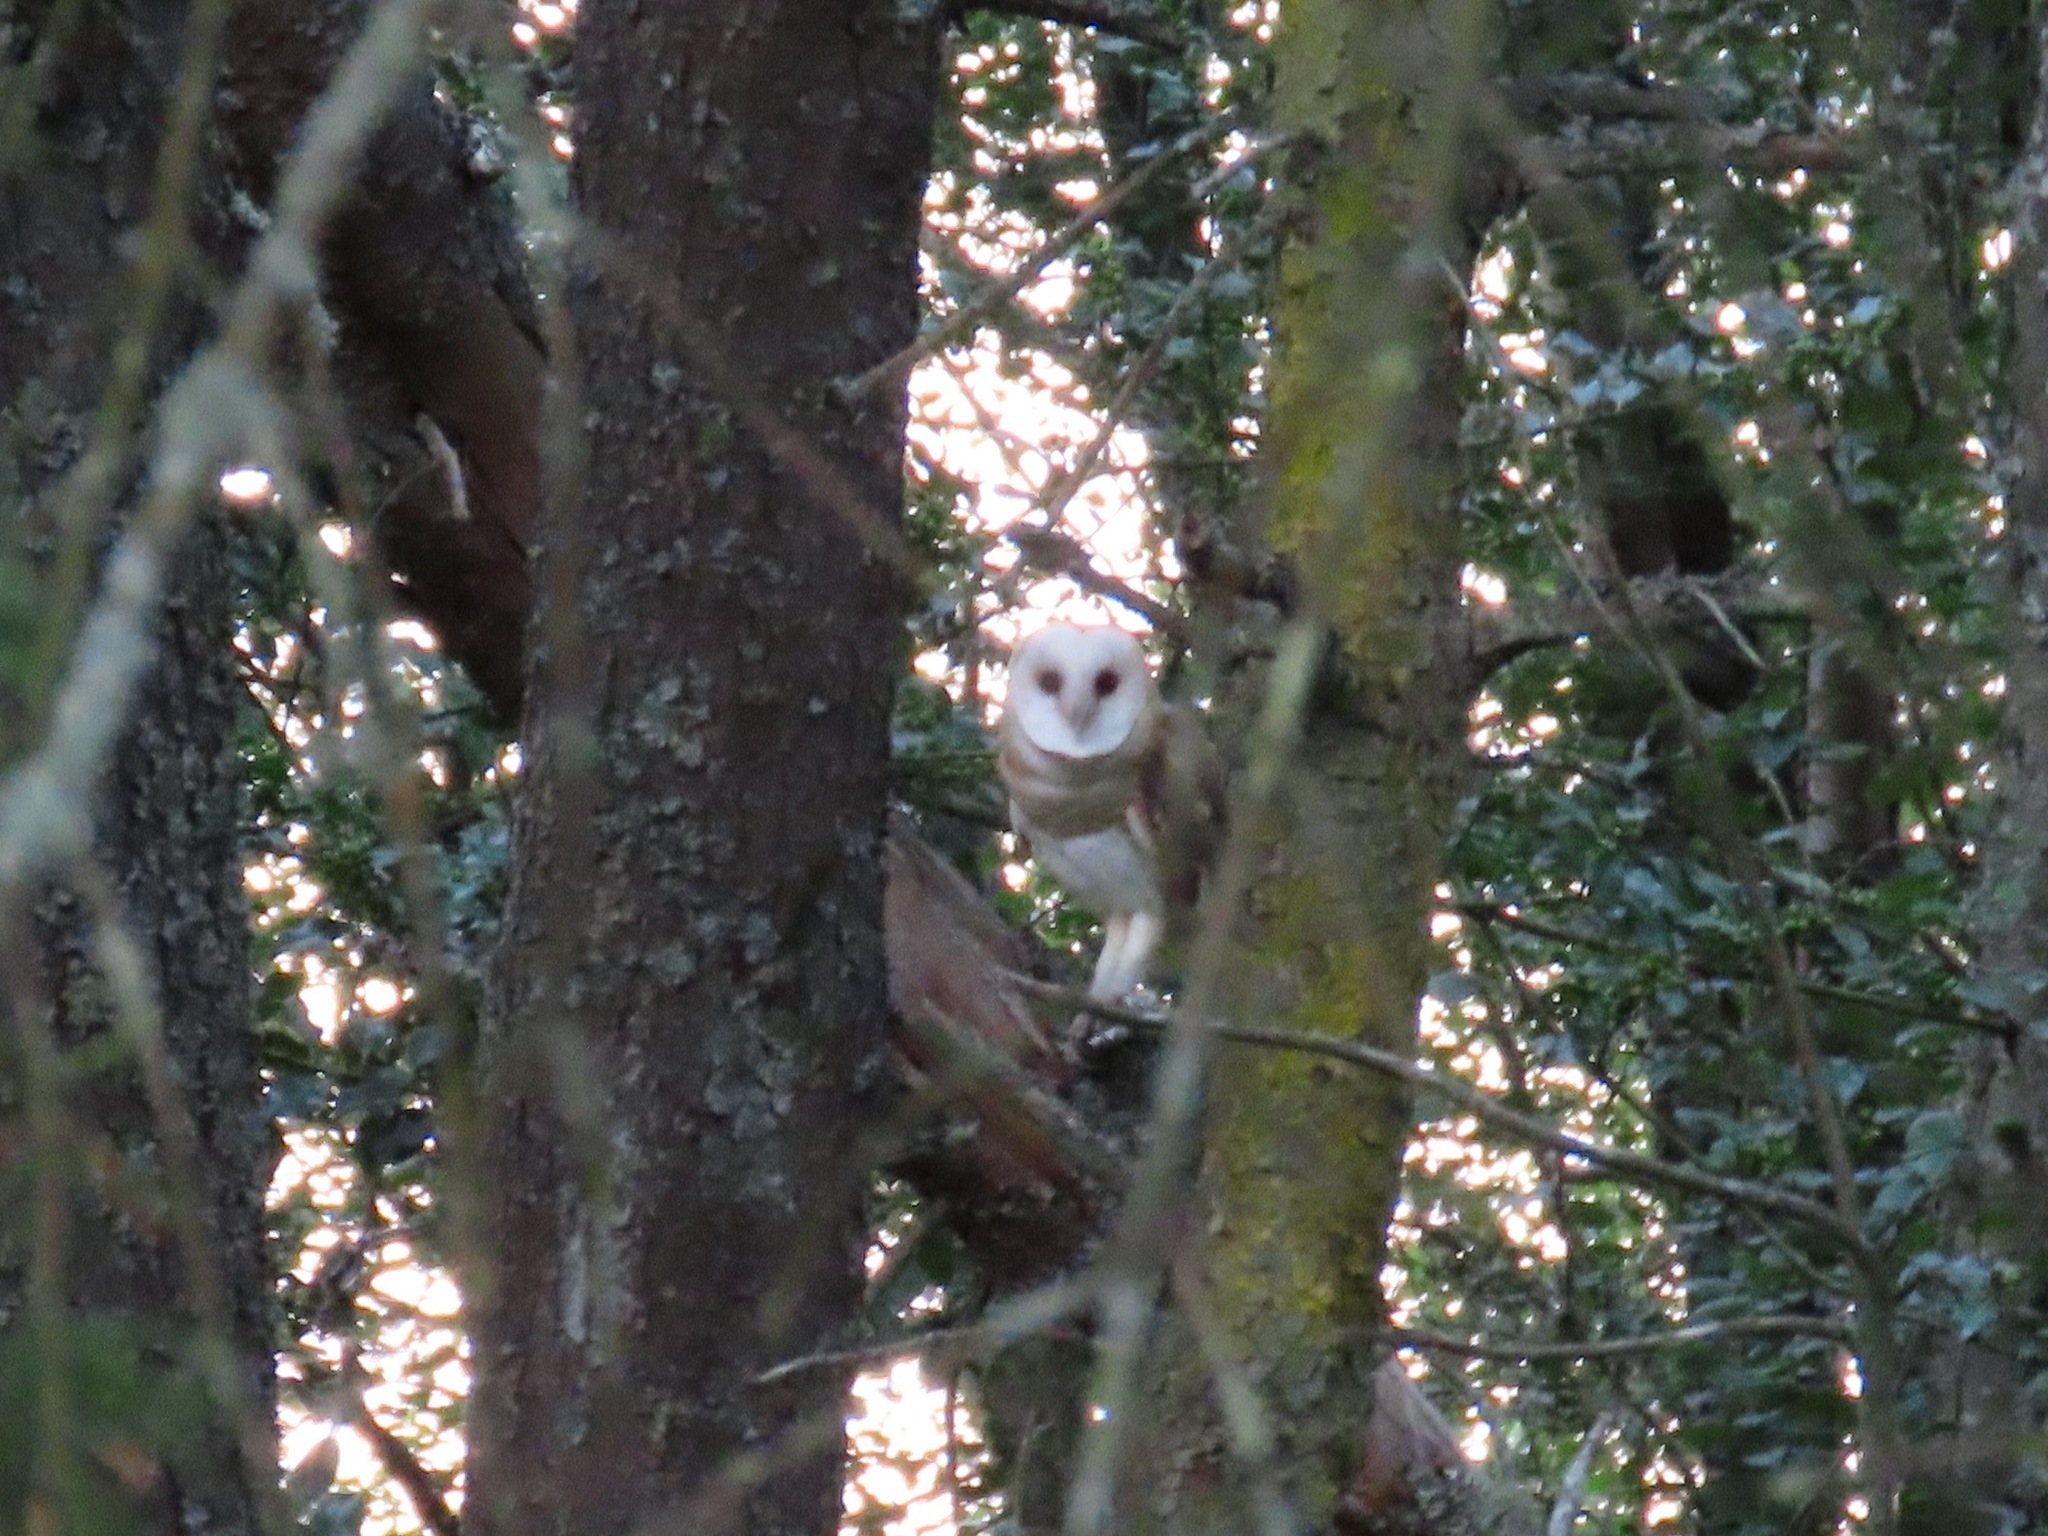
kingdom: Animalia
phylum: Chordata
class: Aves
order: Strigiformes
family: Tytonidae
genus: Tyto
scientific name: Tyto alba
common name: Barn owl
